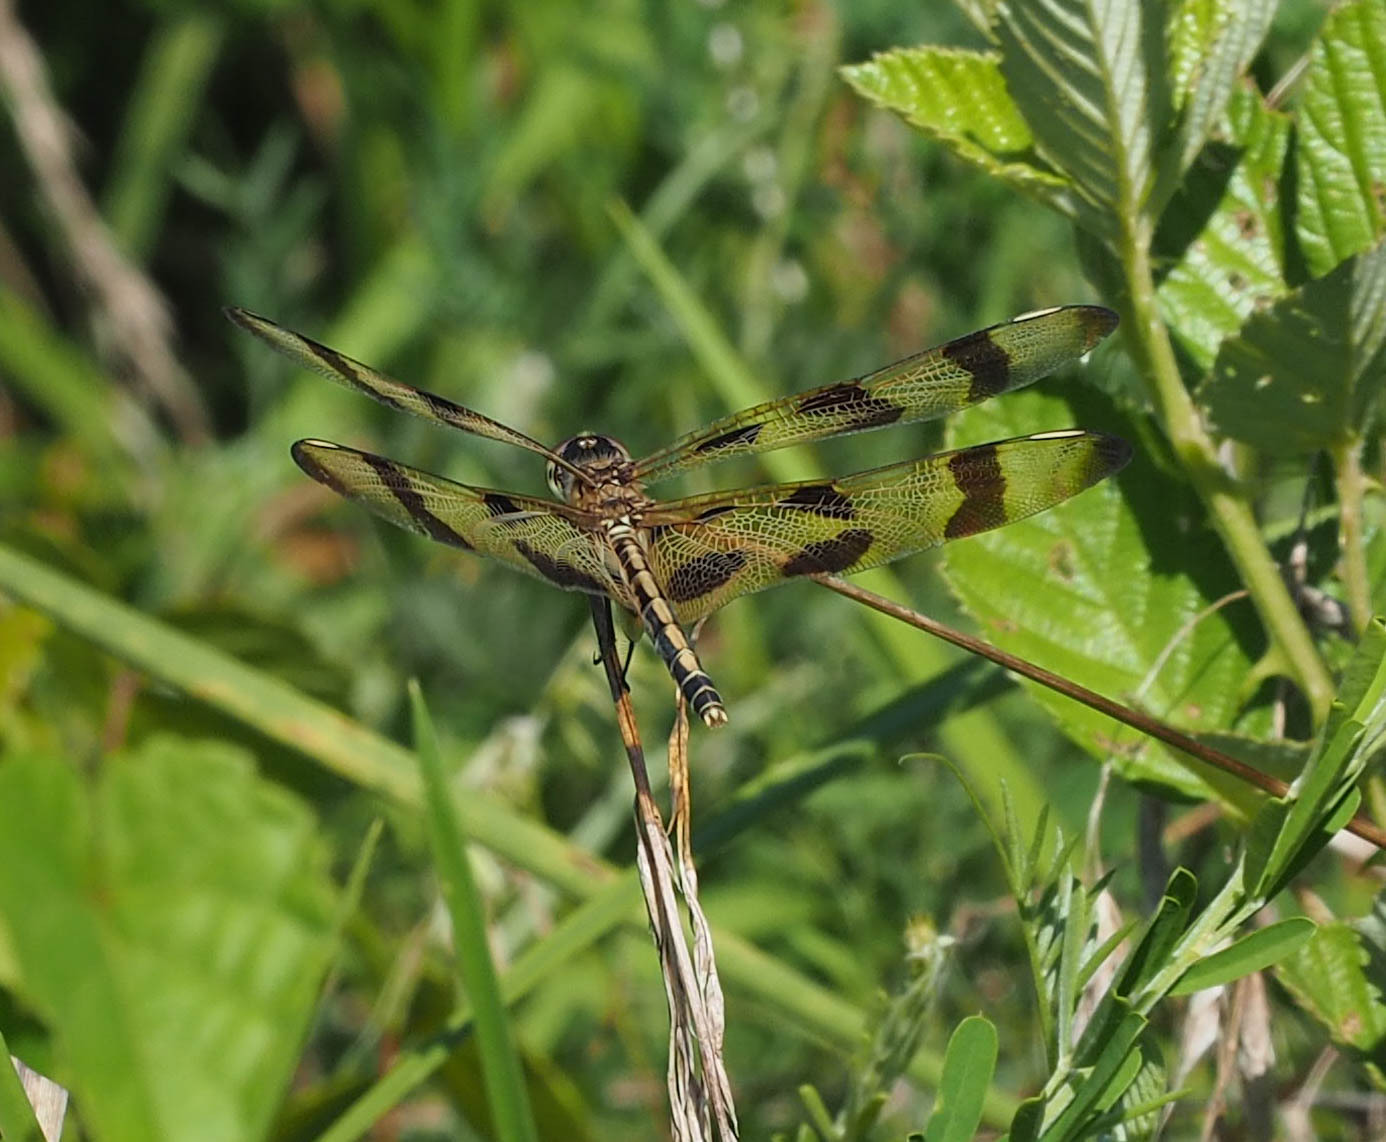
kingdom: Animalia
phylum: Arthropoda
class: Insecta
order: Odonata
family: Libellulidae
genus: Celithemis
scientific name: Celithemis eponina
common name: Halloween pennant
